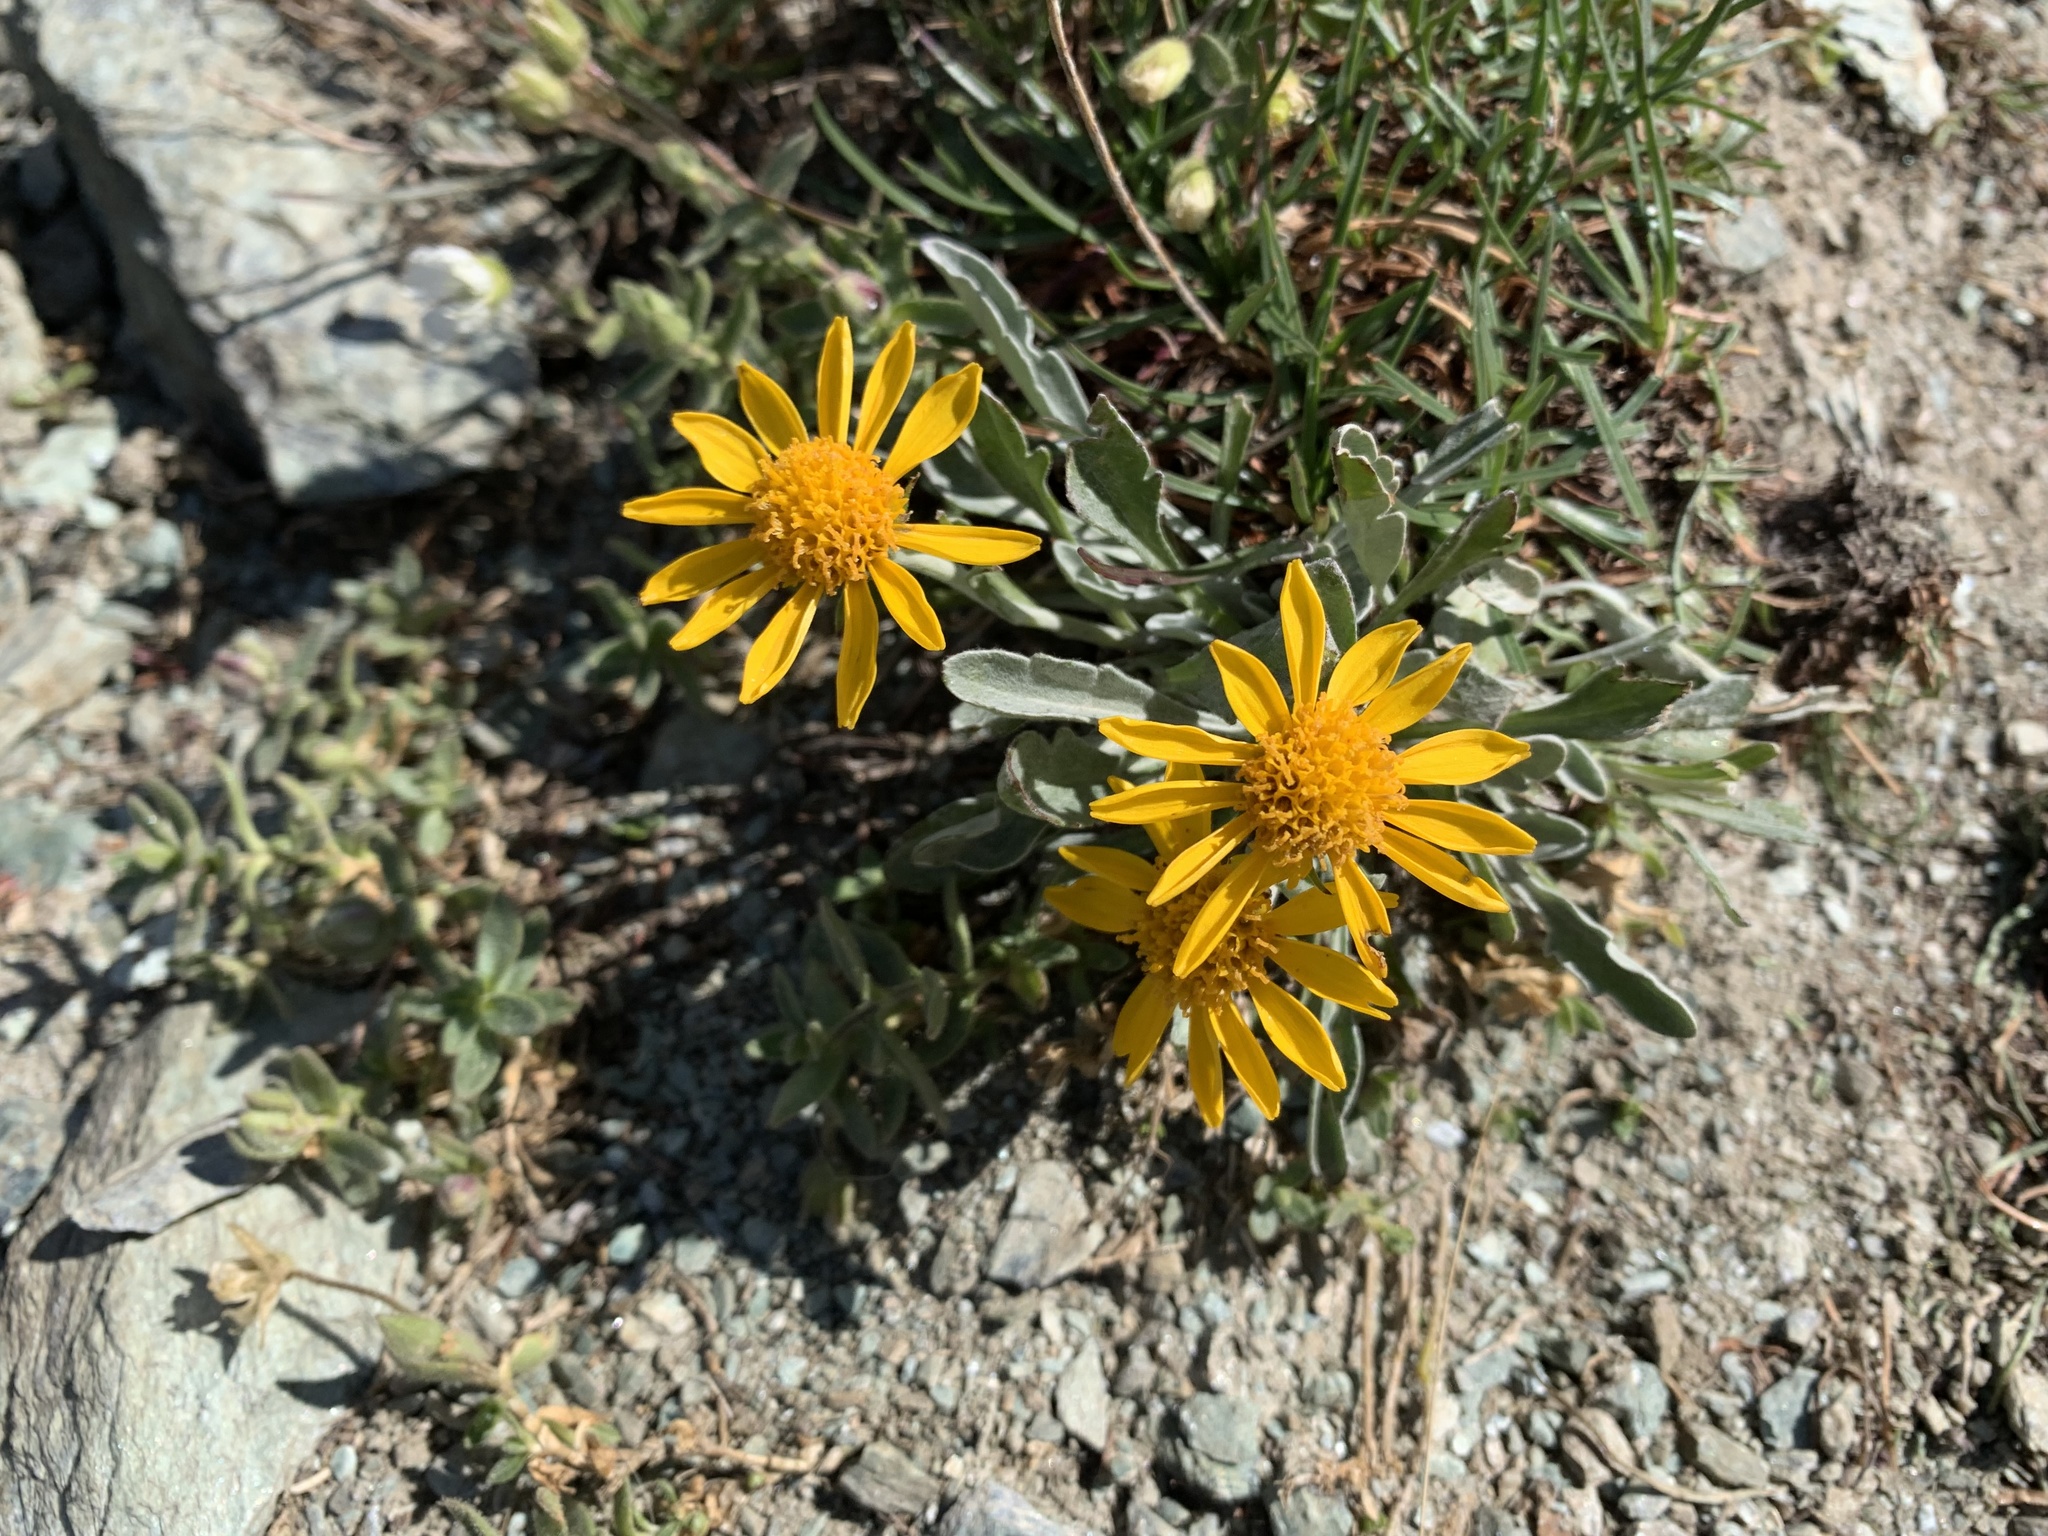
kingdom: Plantae
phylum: Tracheophyta
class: Magnoliopsida
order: Asterales
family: Asteraceae
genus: Jacobaea
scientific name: Jacobaea uniflora
